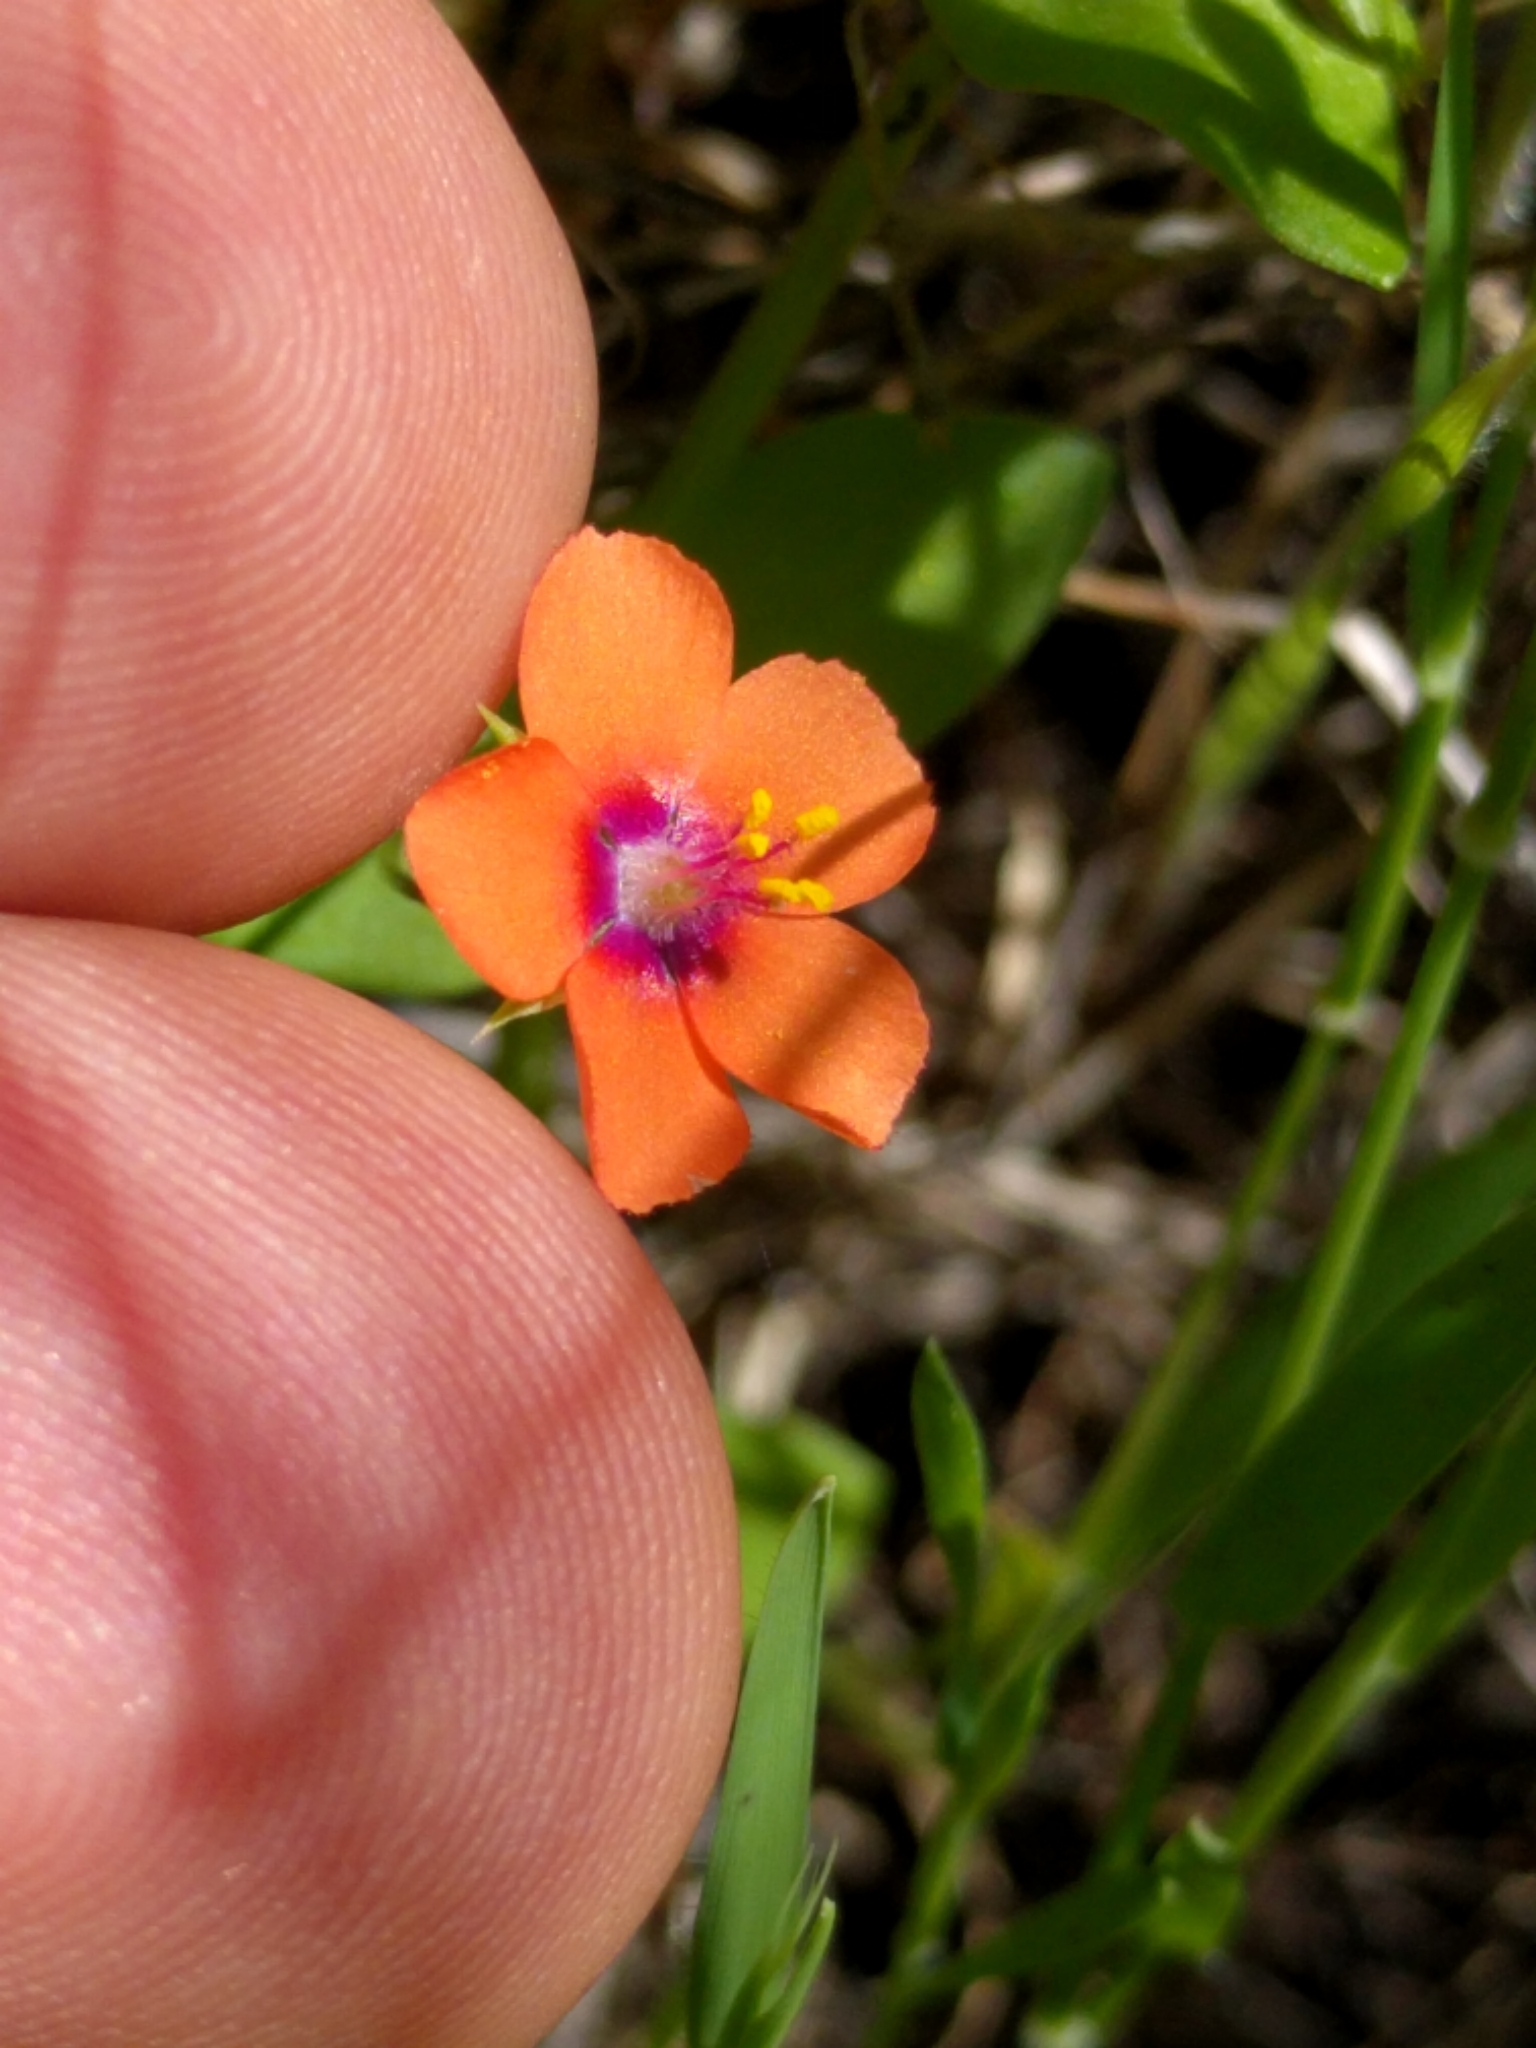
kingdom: Plantae
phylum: Tracheophyta
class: Magnoliopsida
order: Ericales
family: Primulaceae
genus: Lysimachia
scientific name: Lysimachia arvensis
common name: Scarlet pimpernel
